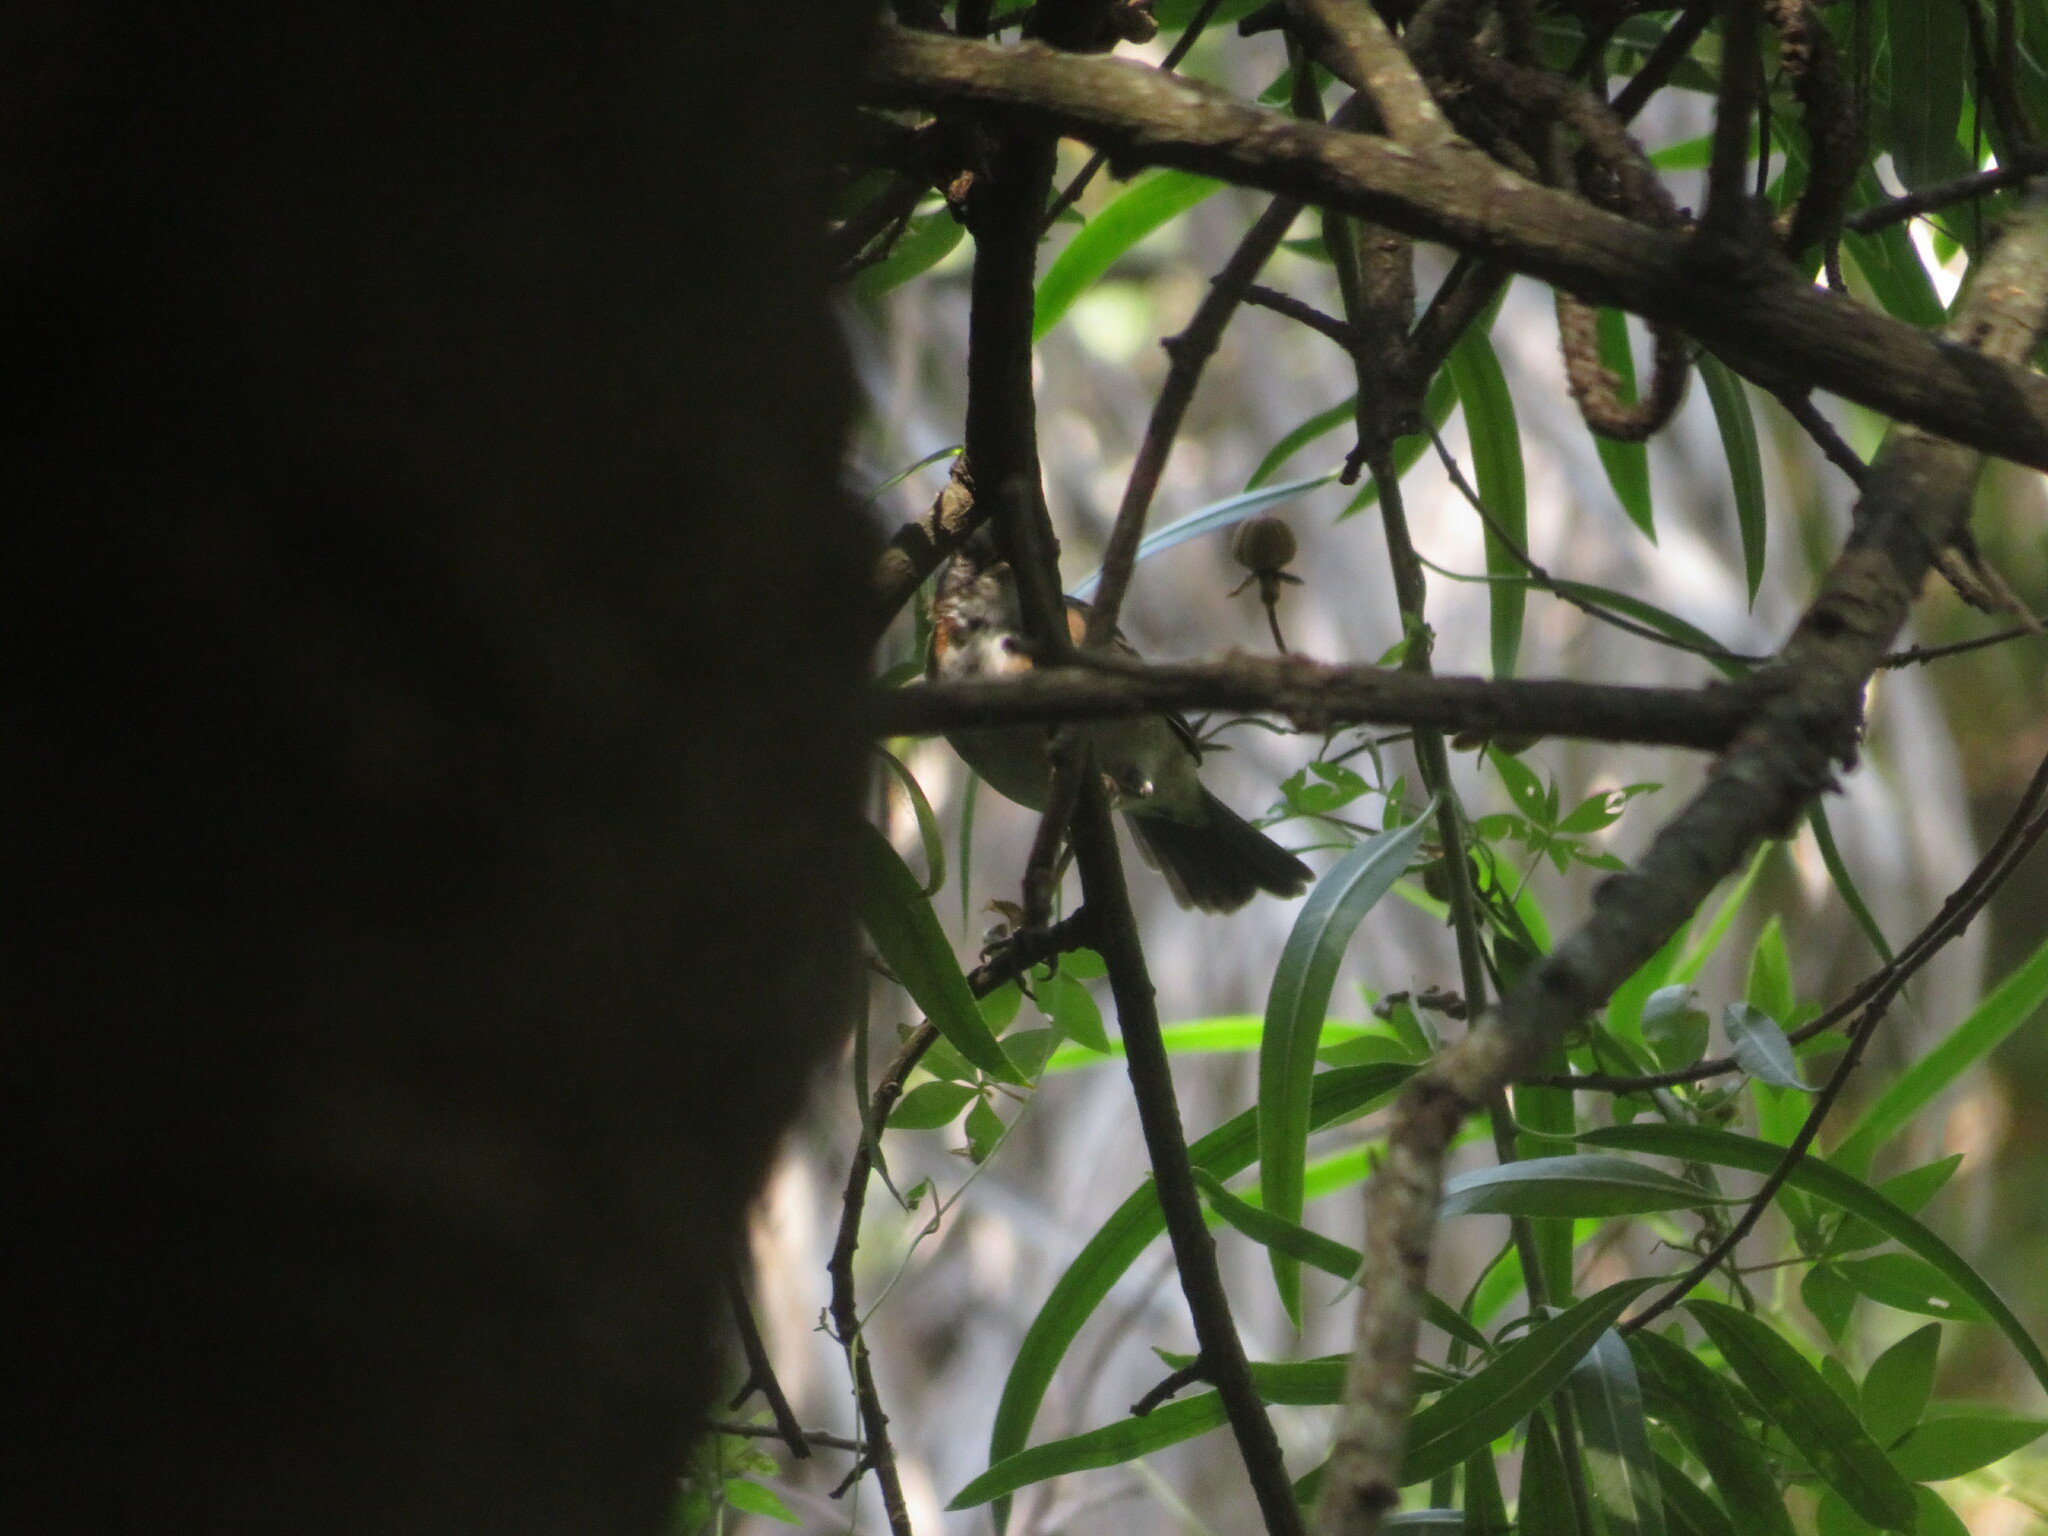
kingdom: Animalia
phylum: Chordata
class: Aves
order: Passeriformes
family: Passerellidae
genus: Zonotrichia
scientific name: Zonotrichia capensis
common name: Rufous-collared sparrow
